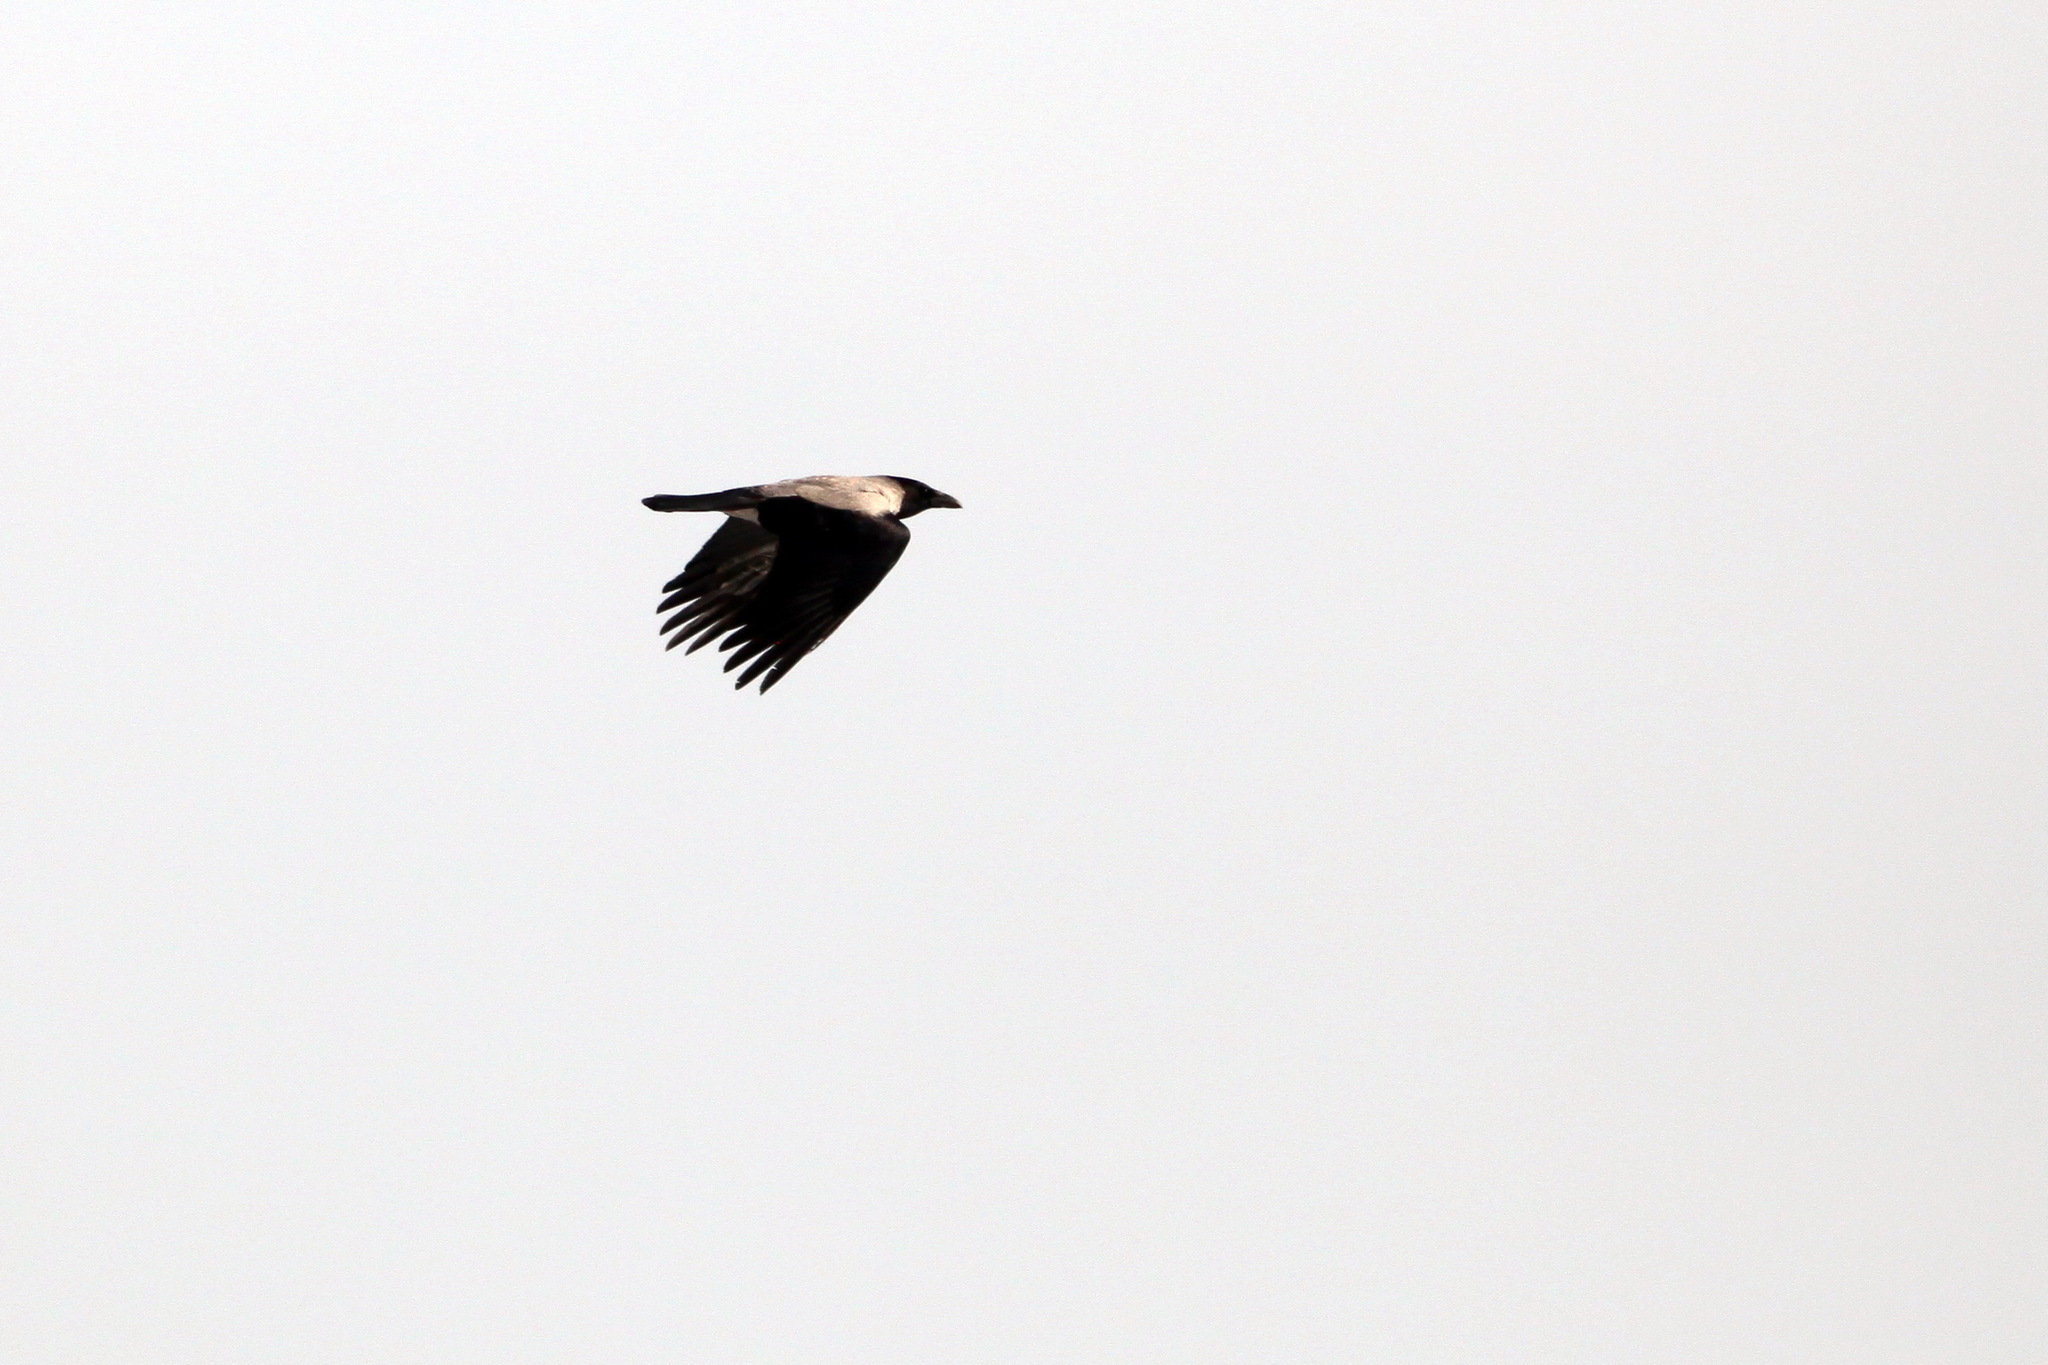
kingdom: Animalia
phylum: Chordata
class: Aves
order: Passeriformes
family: Corvidae
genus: Corvus
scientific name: Corvus cornix
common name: Hooded crow
